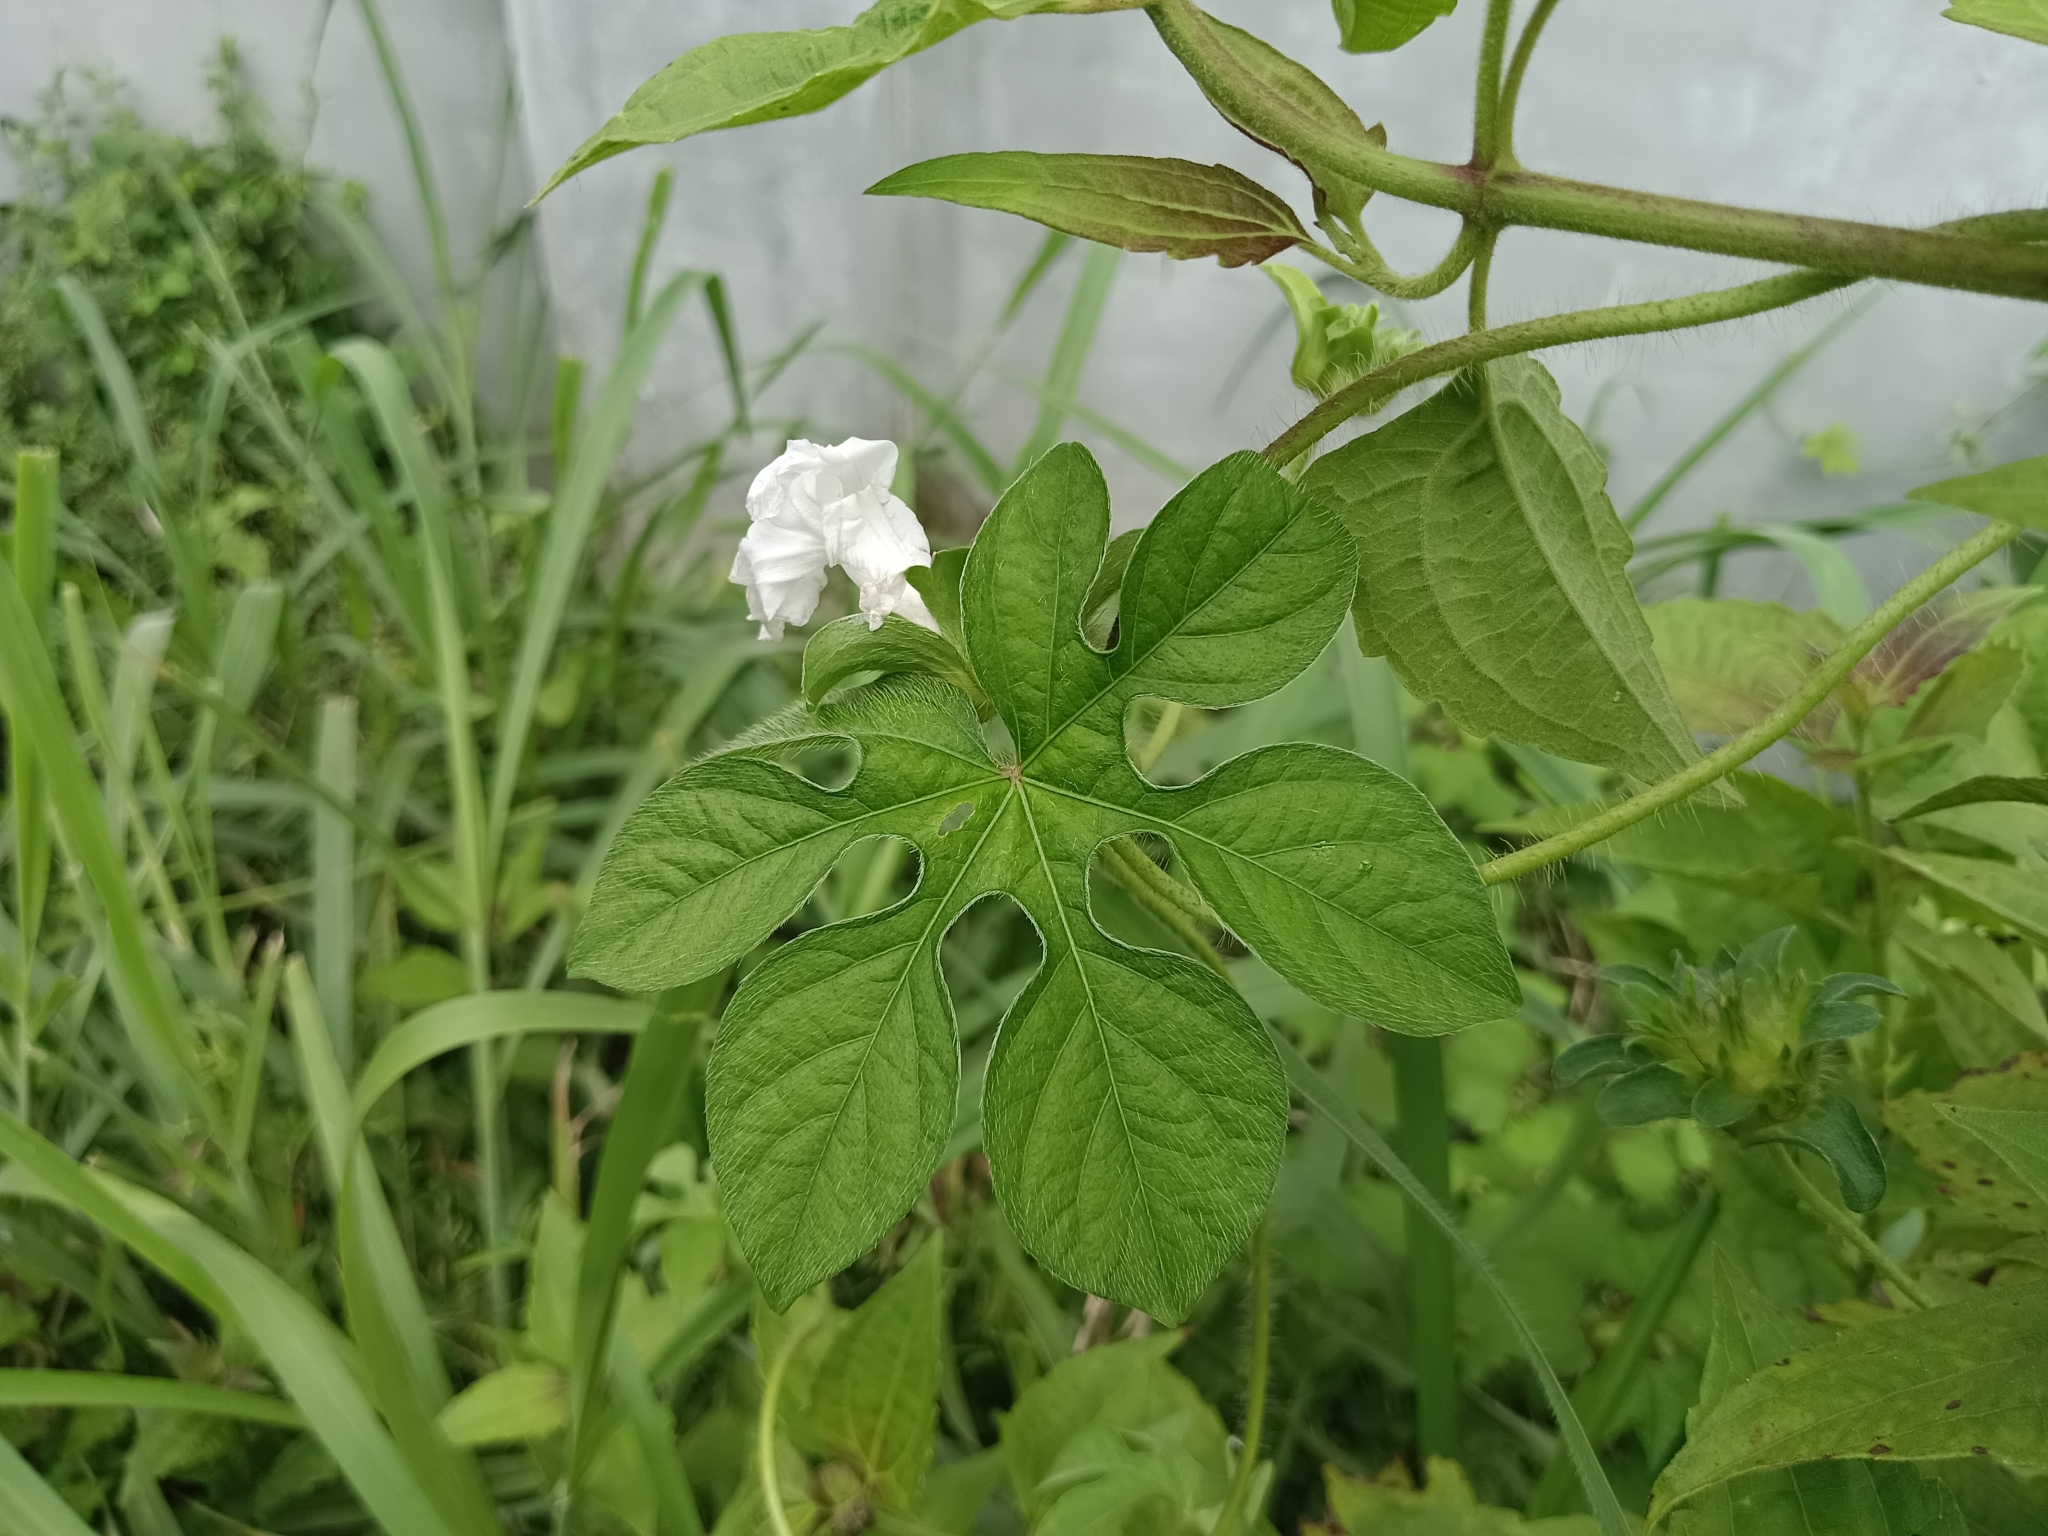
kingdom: Plantae
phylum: Tracheophyta
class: Magnoliopsida
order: Solanales
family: Convolvulaceae
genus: Ipomoea
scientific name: Ipomoea pes-tigridis
